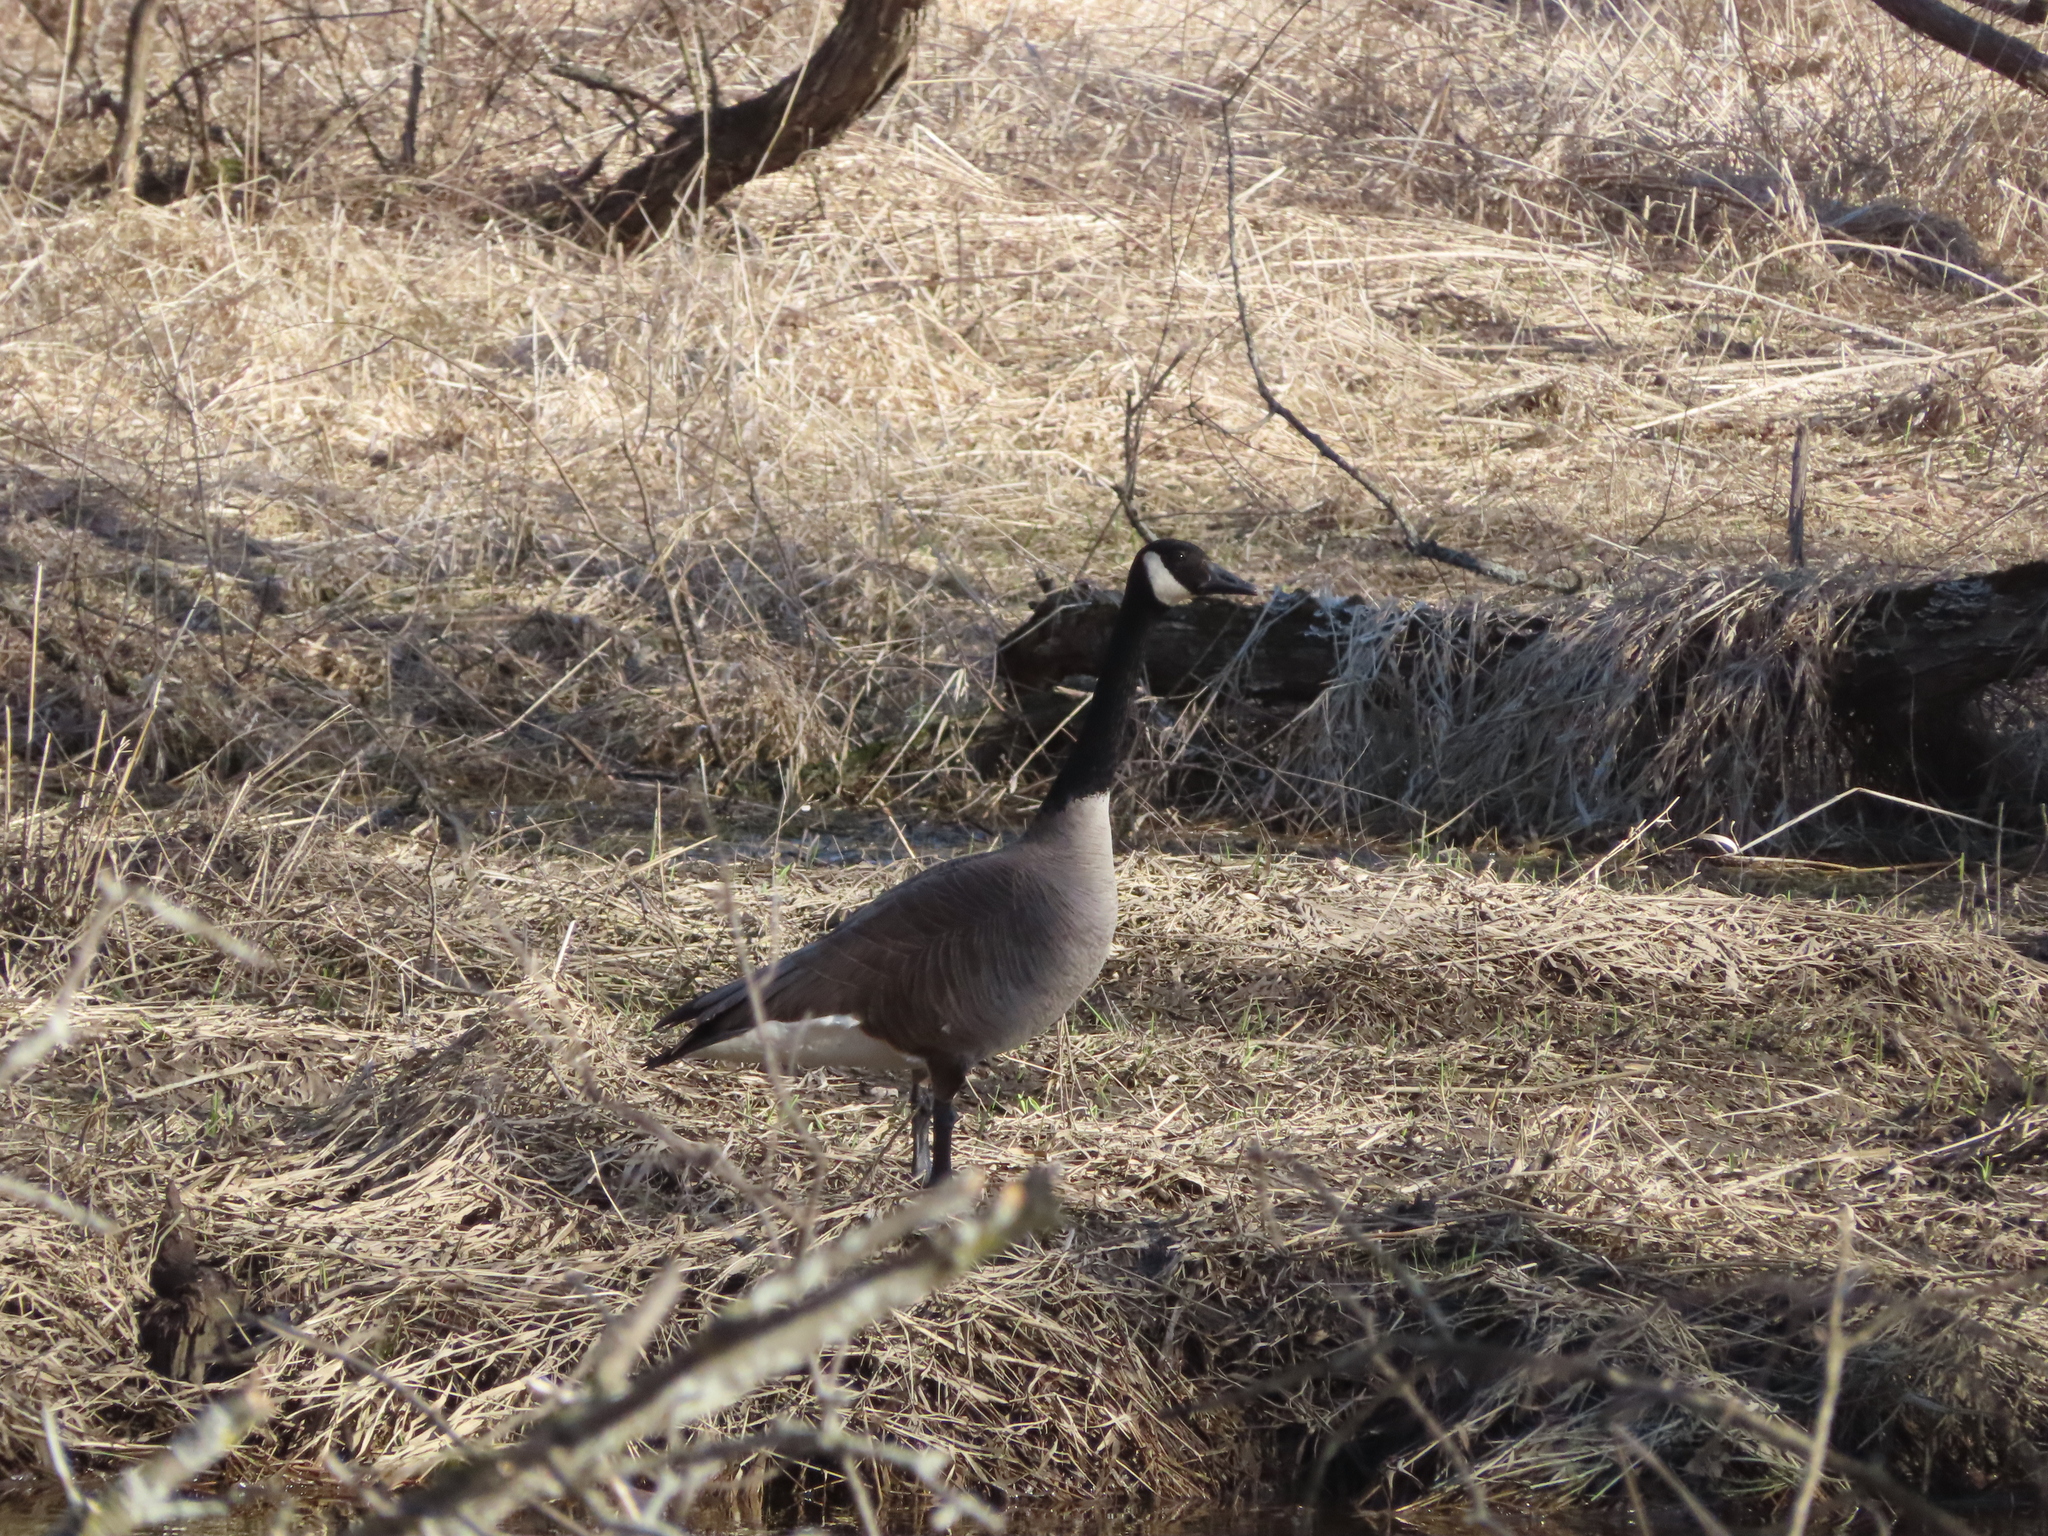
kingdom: Animalia
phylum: Chordata
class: Aves
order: Anseriformes
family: Anatidae
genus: Branta
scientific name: Branta canadensis
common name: Canada goose
